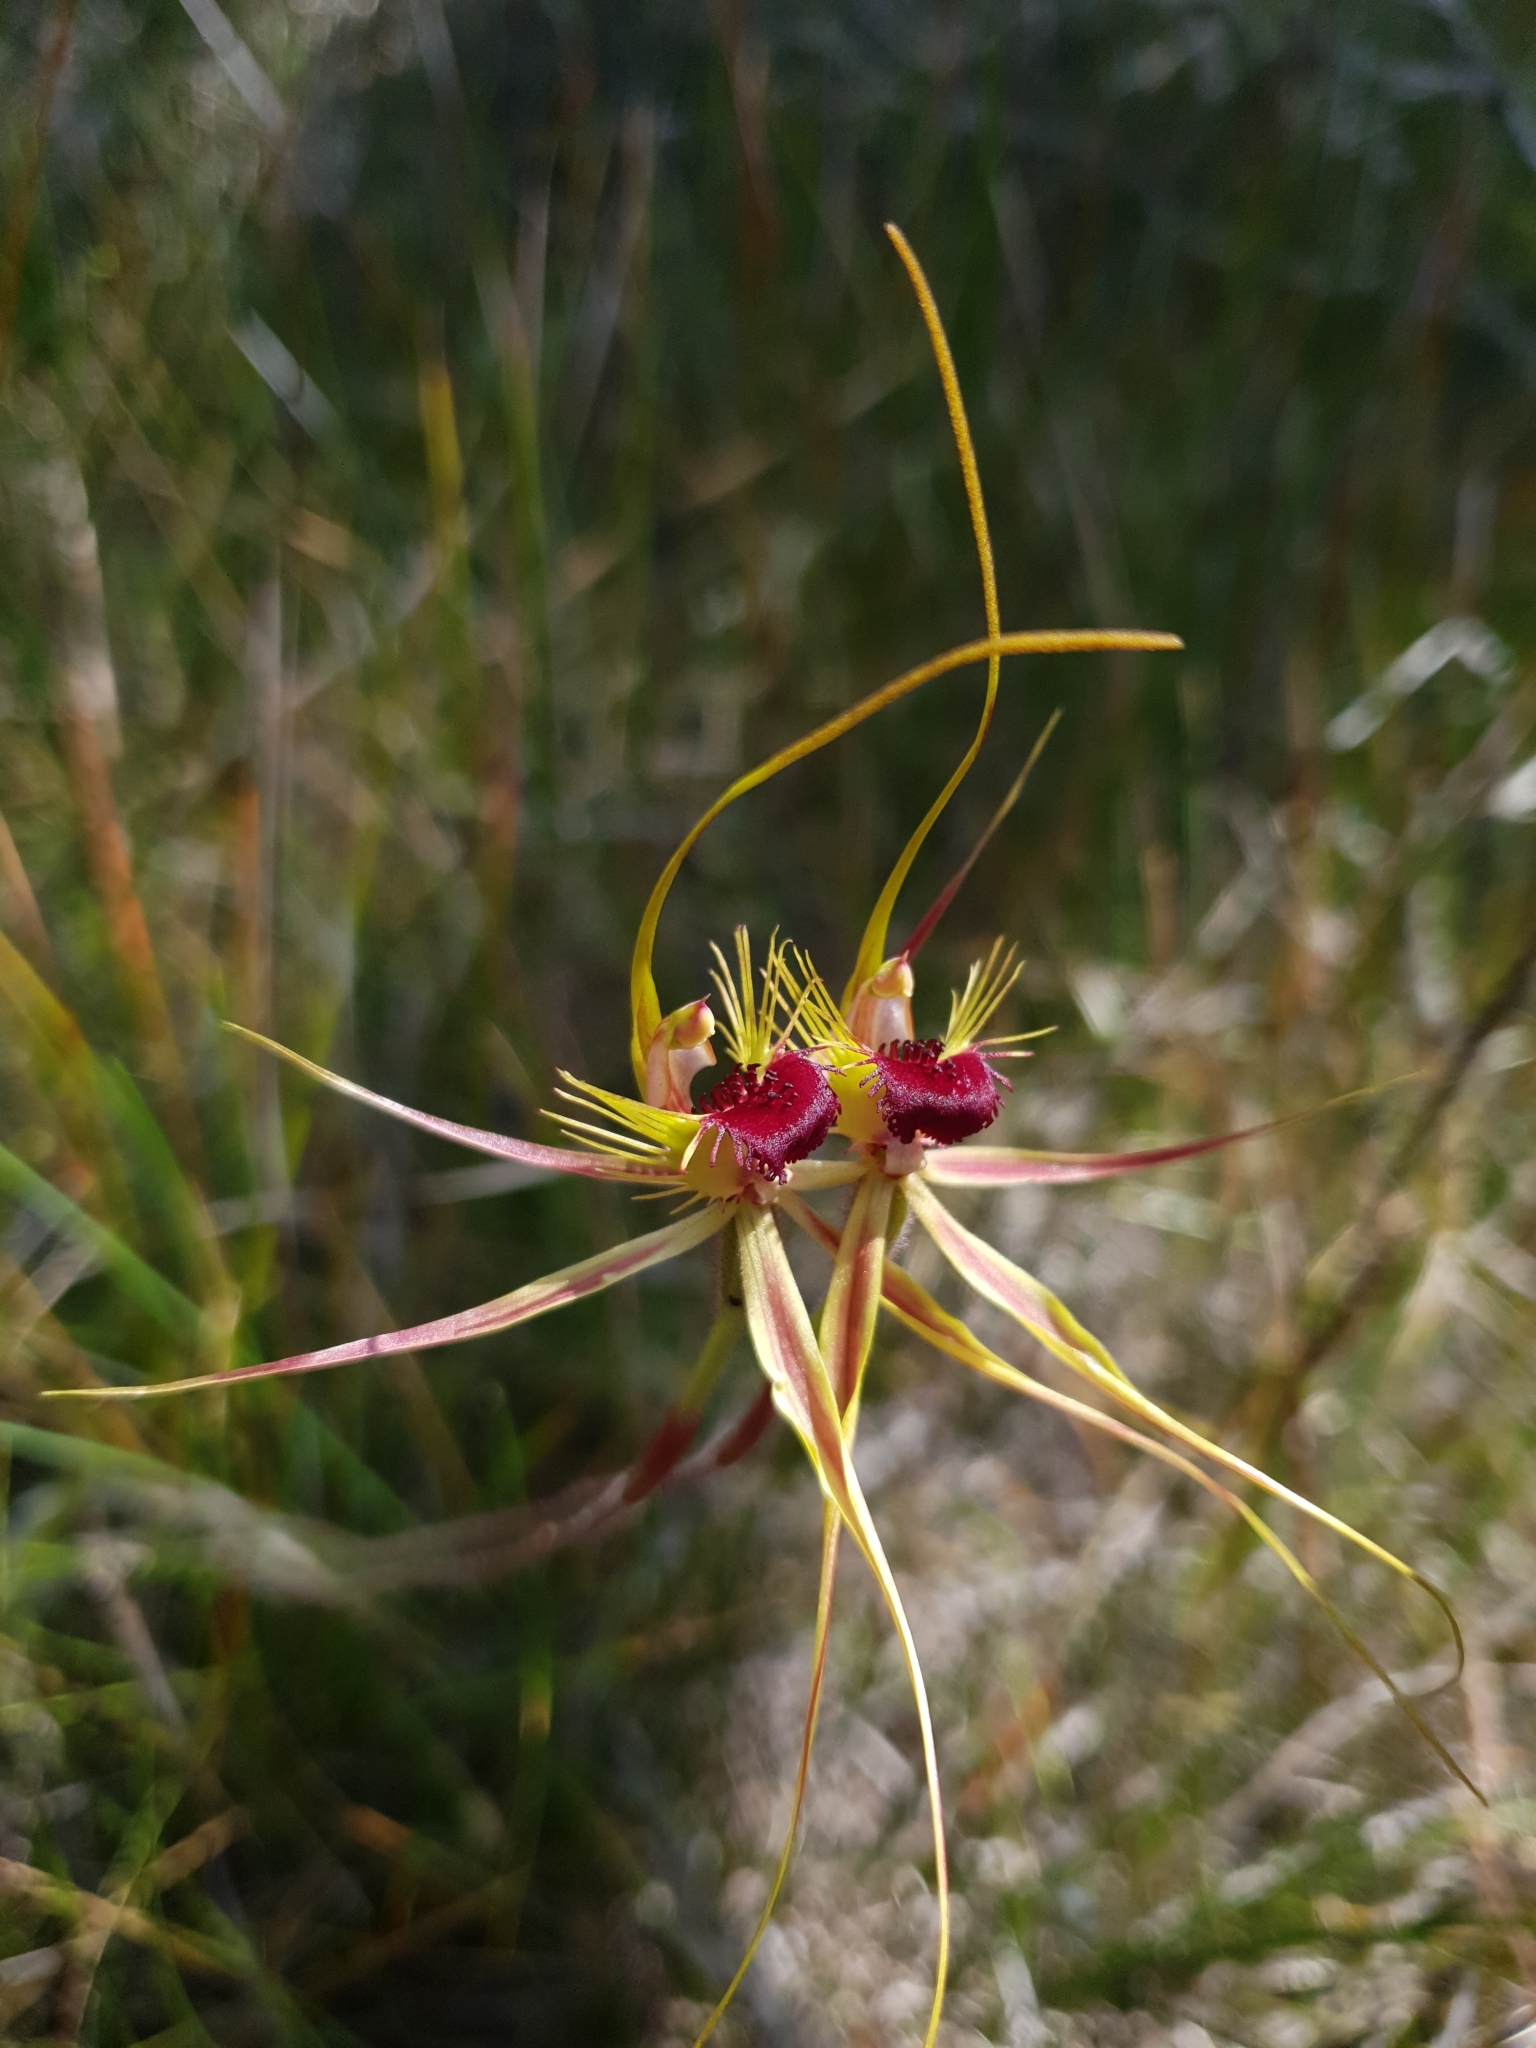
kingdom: Plantae
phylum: Tracheophyta
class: Liliopsida
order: Asparagales
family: Orchidaceae
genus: Caladenia
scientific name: Caladenia radiata
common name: Ray spider orchid
